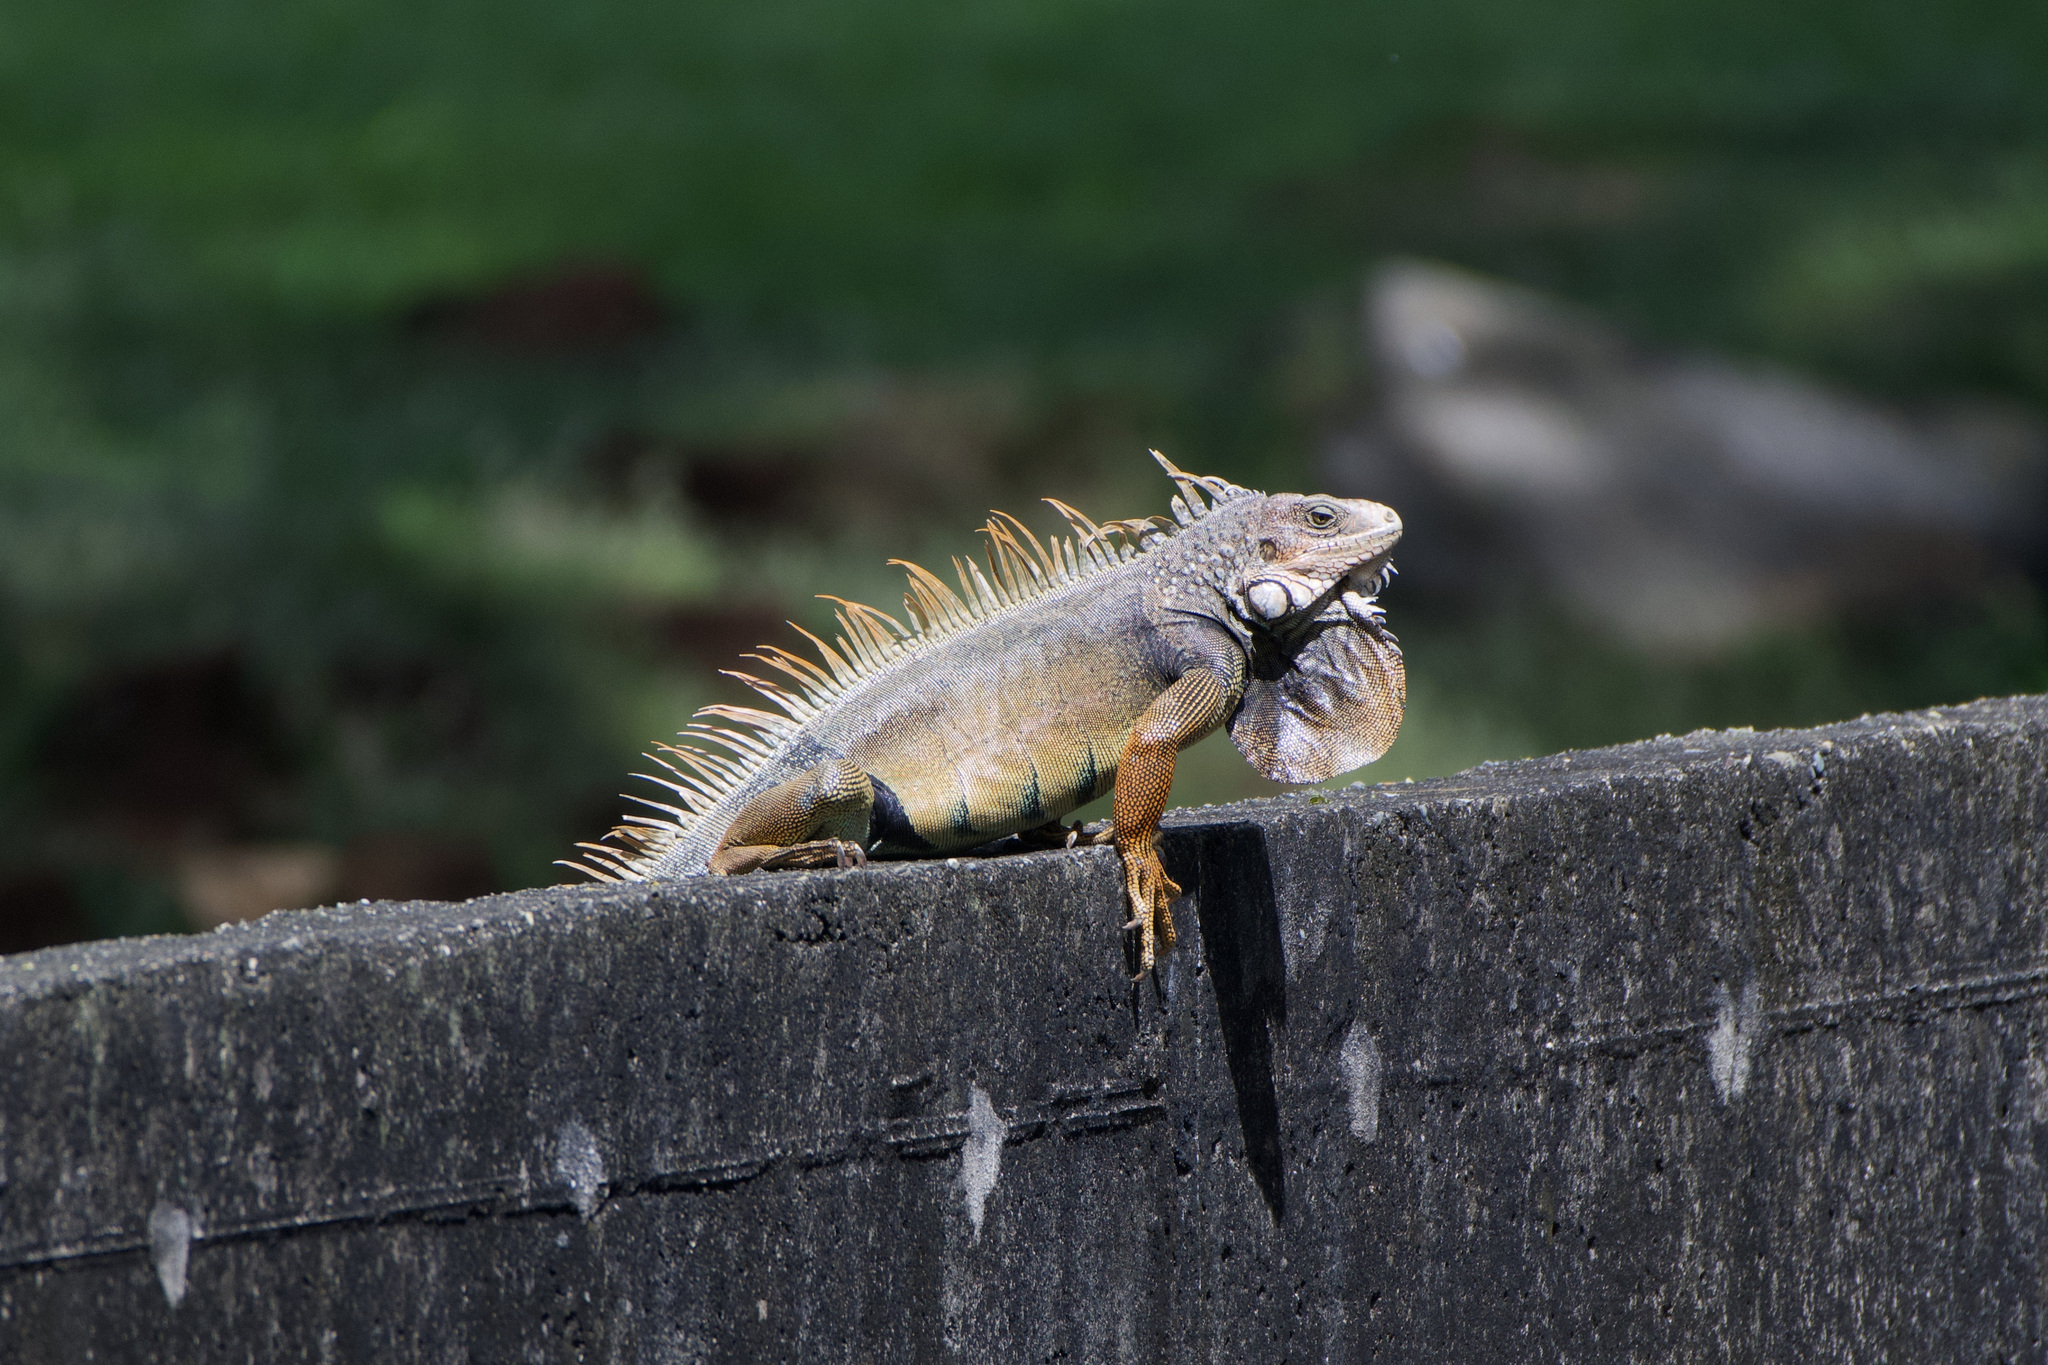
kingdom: Animalia
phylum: Chordata
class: Squamata
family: Iguanidae
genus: Iguana
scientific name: Iguana iguana
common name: Green iguana
